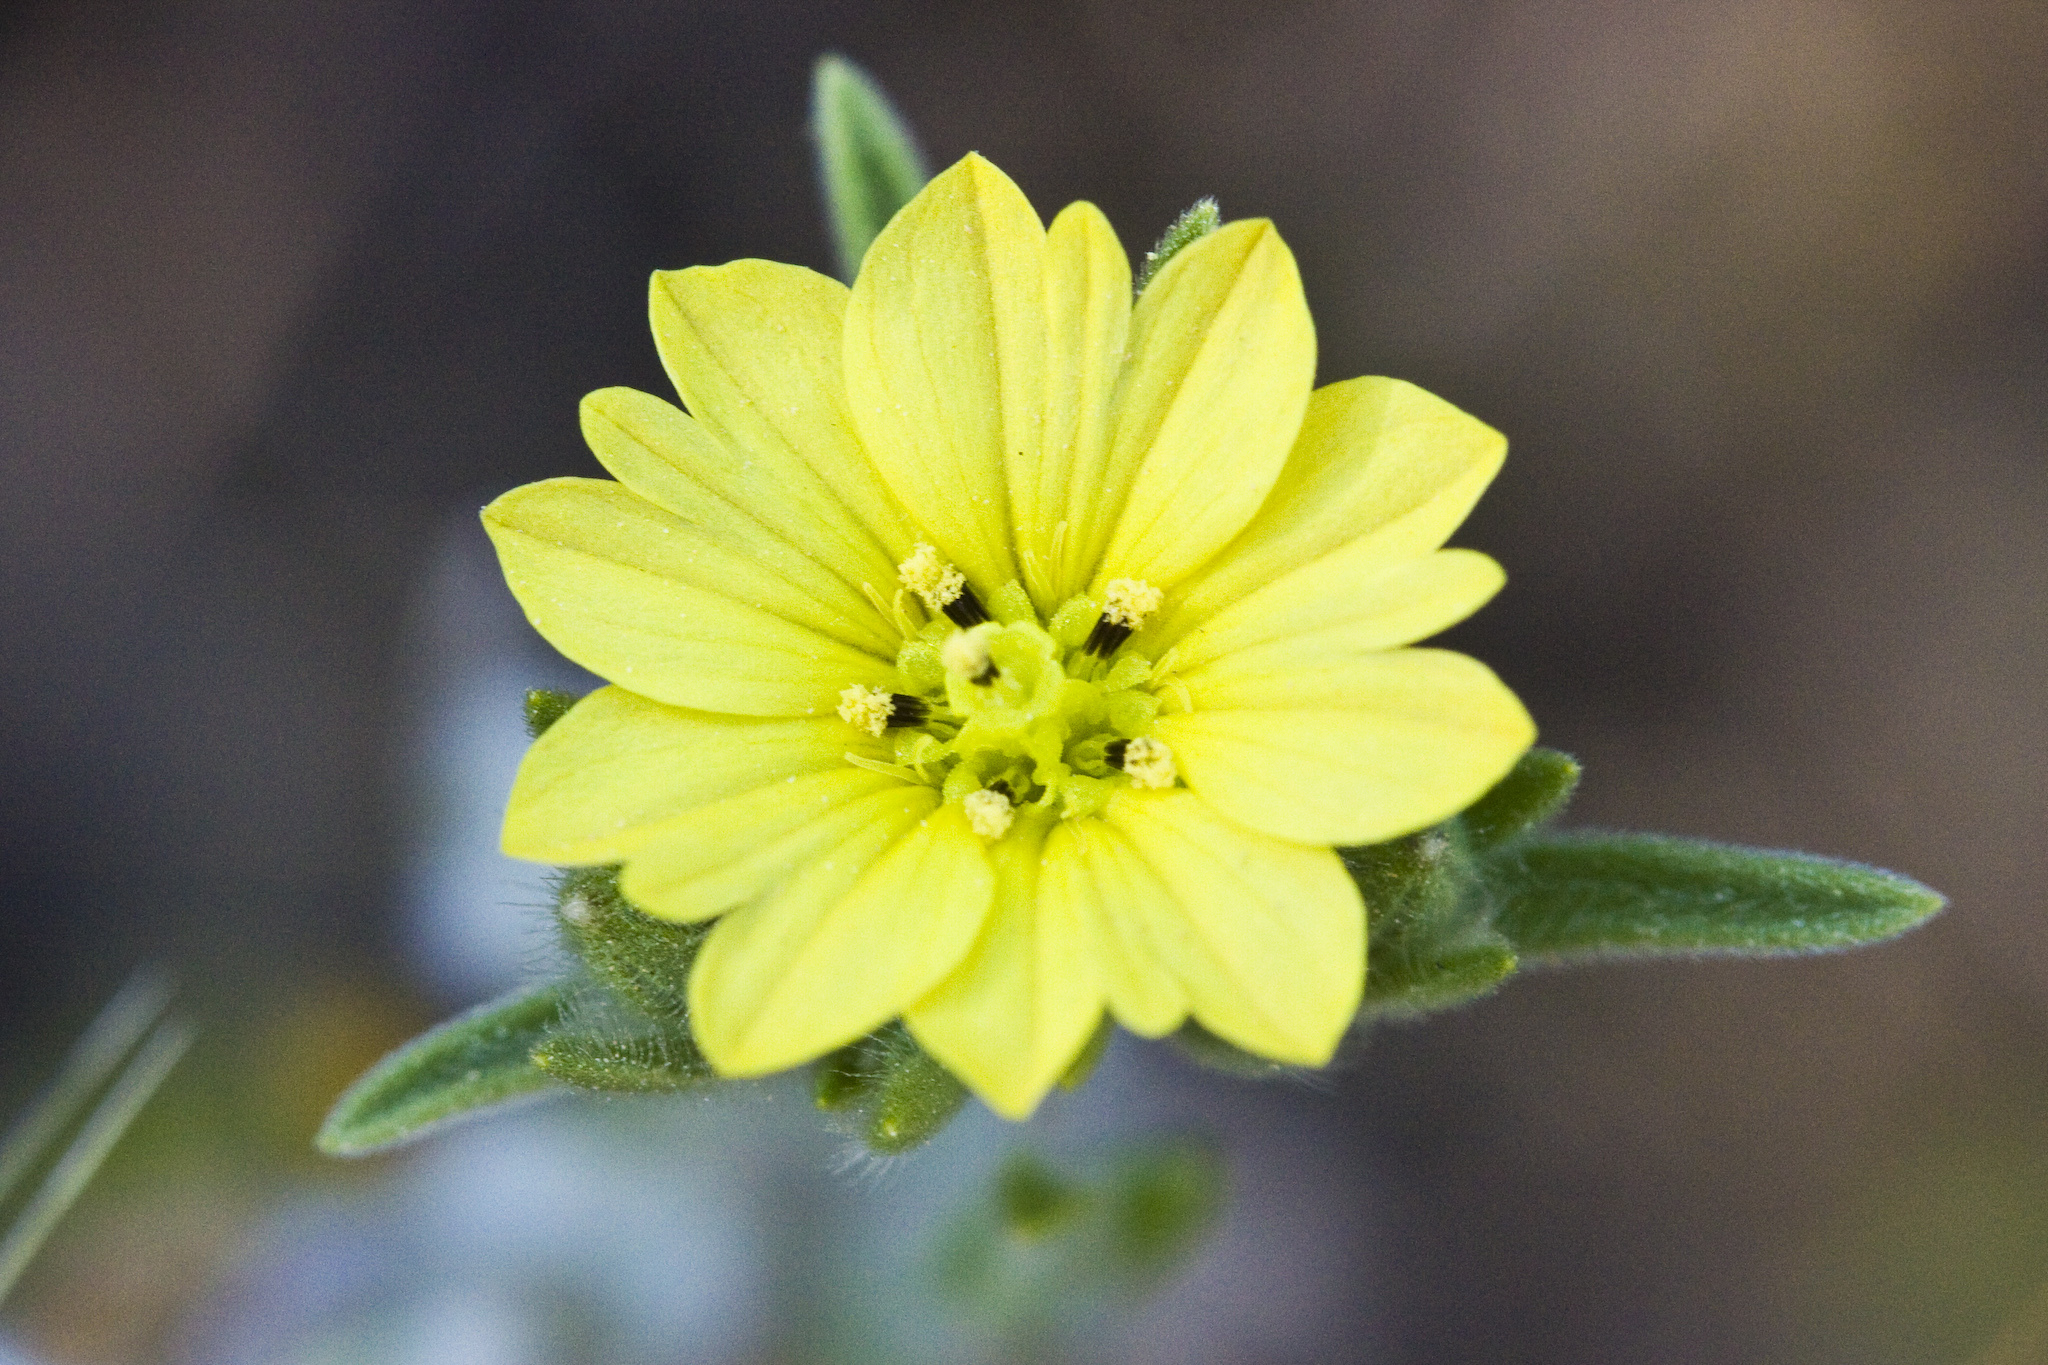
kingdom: Plantae
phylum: Tracheophyta
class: Magnoliopsida
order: Asterales
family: Asteraceae
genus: Lagophylla
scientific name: Lagophylla ramosissima
